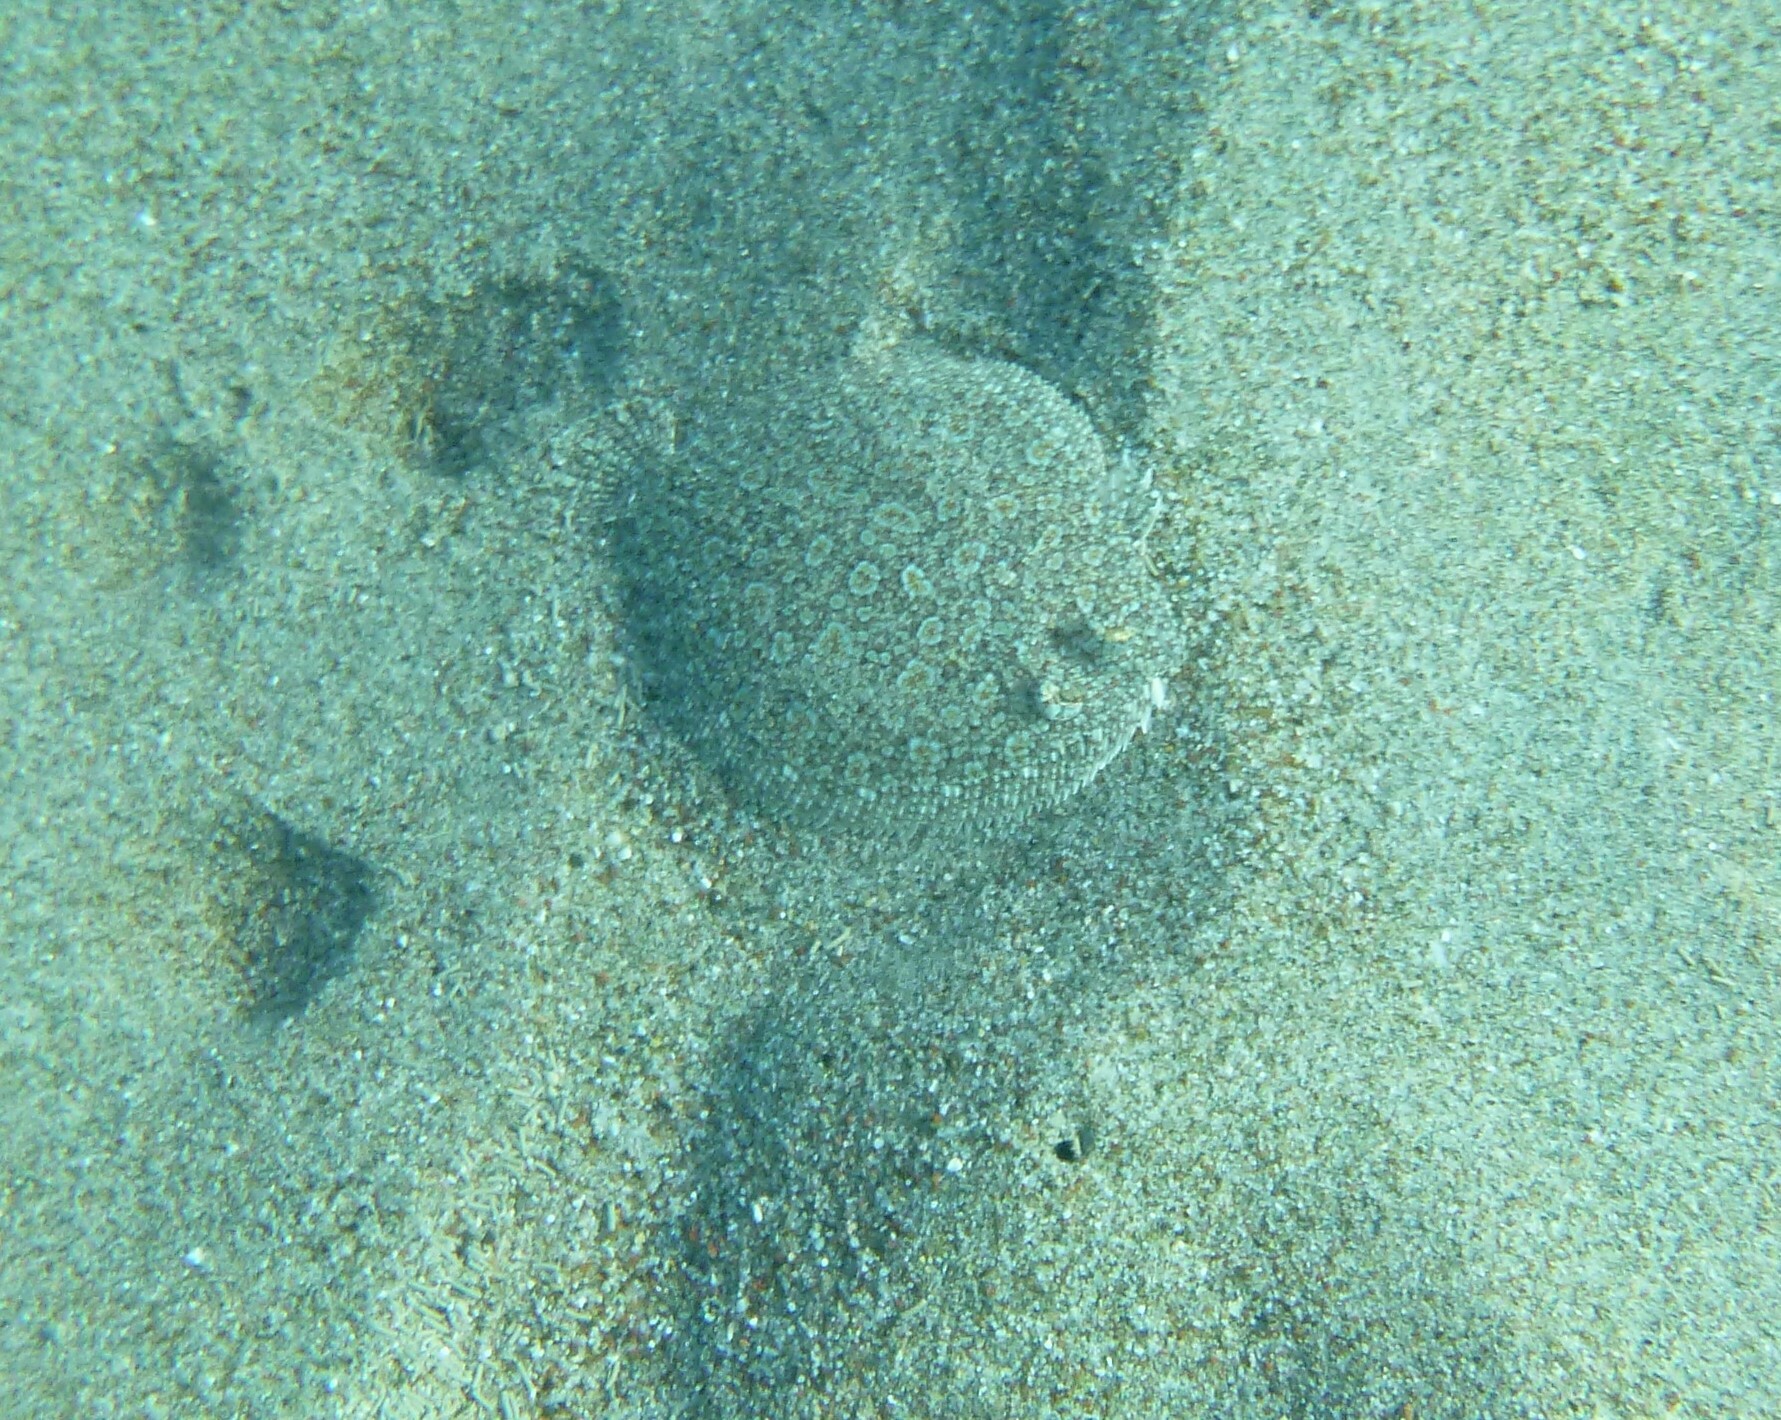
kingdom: Animalia
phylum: Chordata
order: Pleuronectiformes
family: Bothidae
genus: Bothus
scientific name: Bothus podas
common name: Wide-eyed flounder
